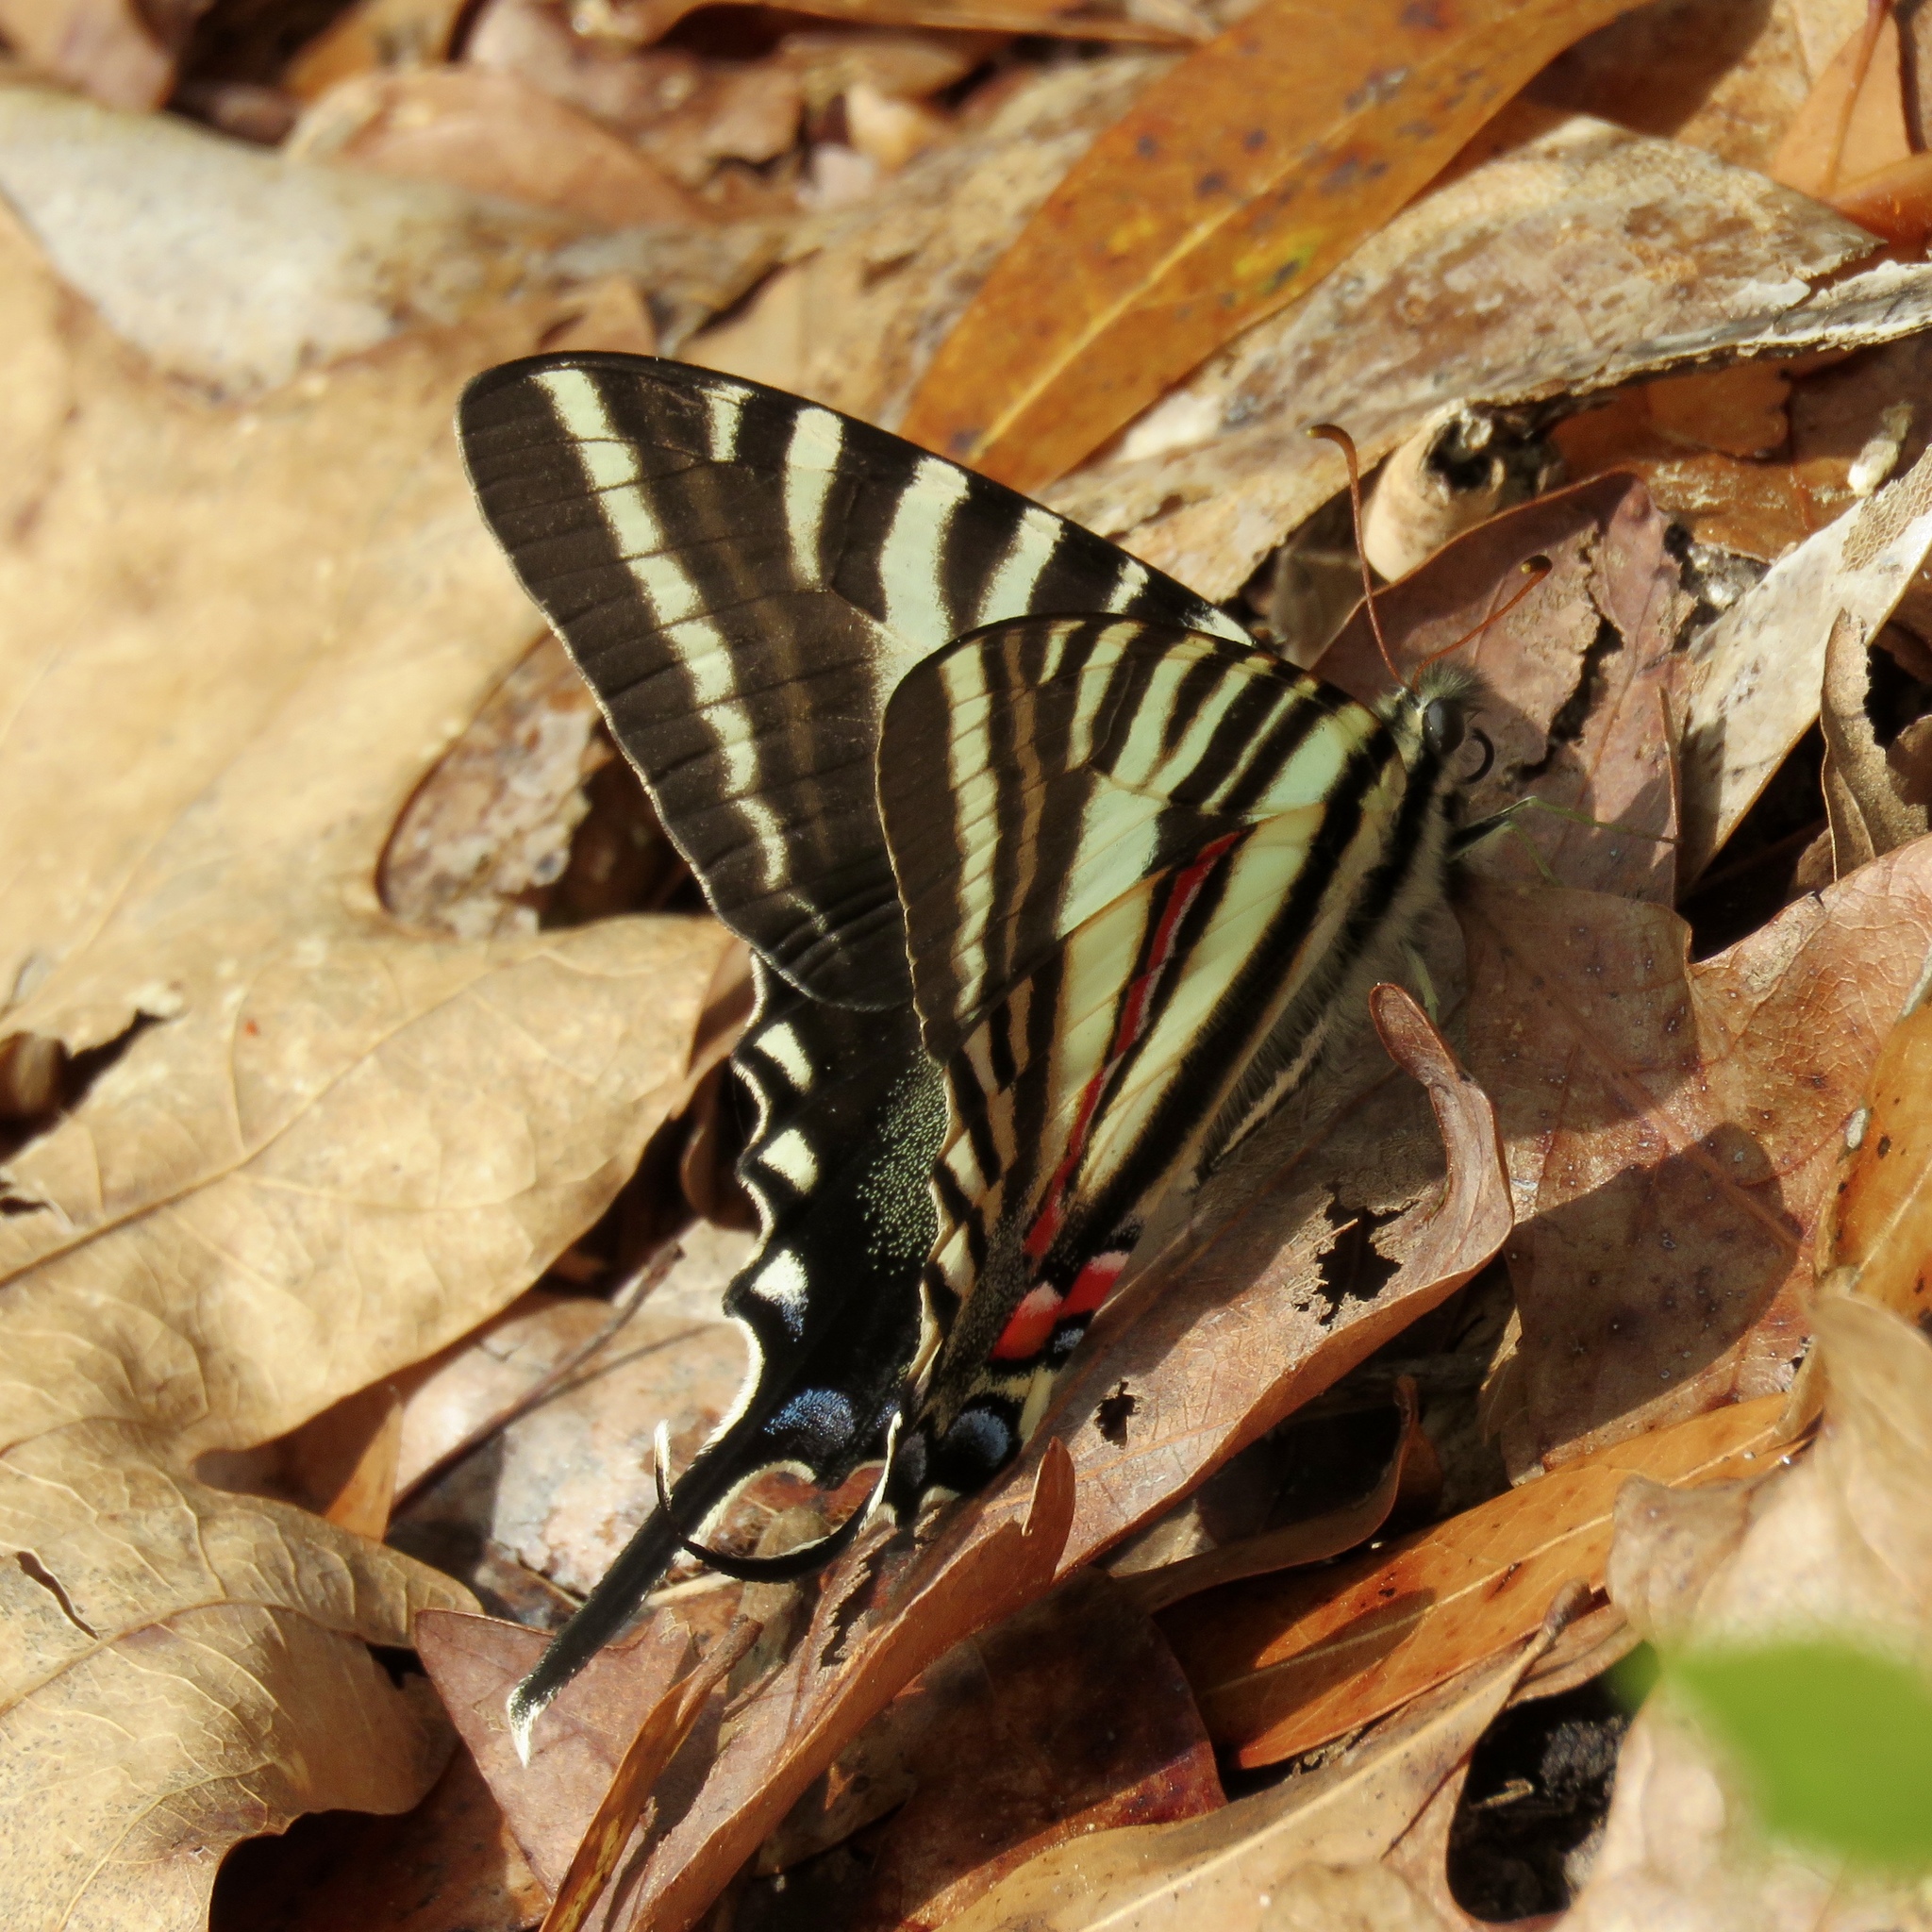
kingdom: Animalia
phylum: Arthropoda
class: Insecta
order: Lepidoptera
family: Papilionidae
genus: Protographium
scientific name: Protographium marcellus
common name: Zebra swallowtail
